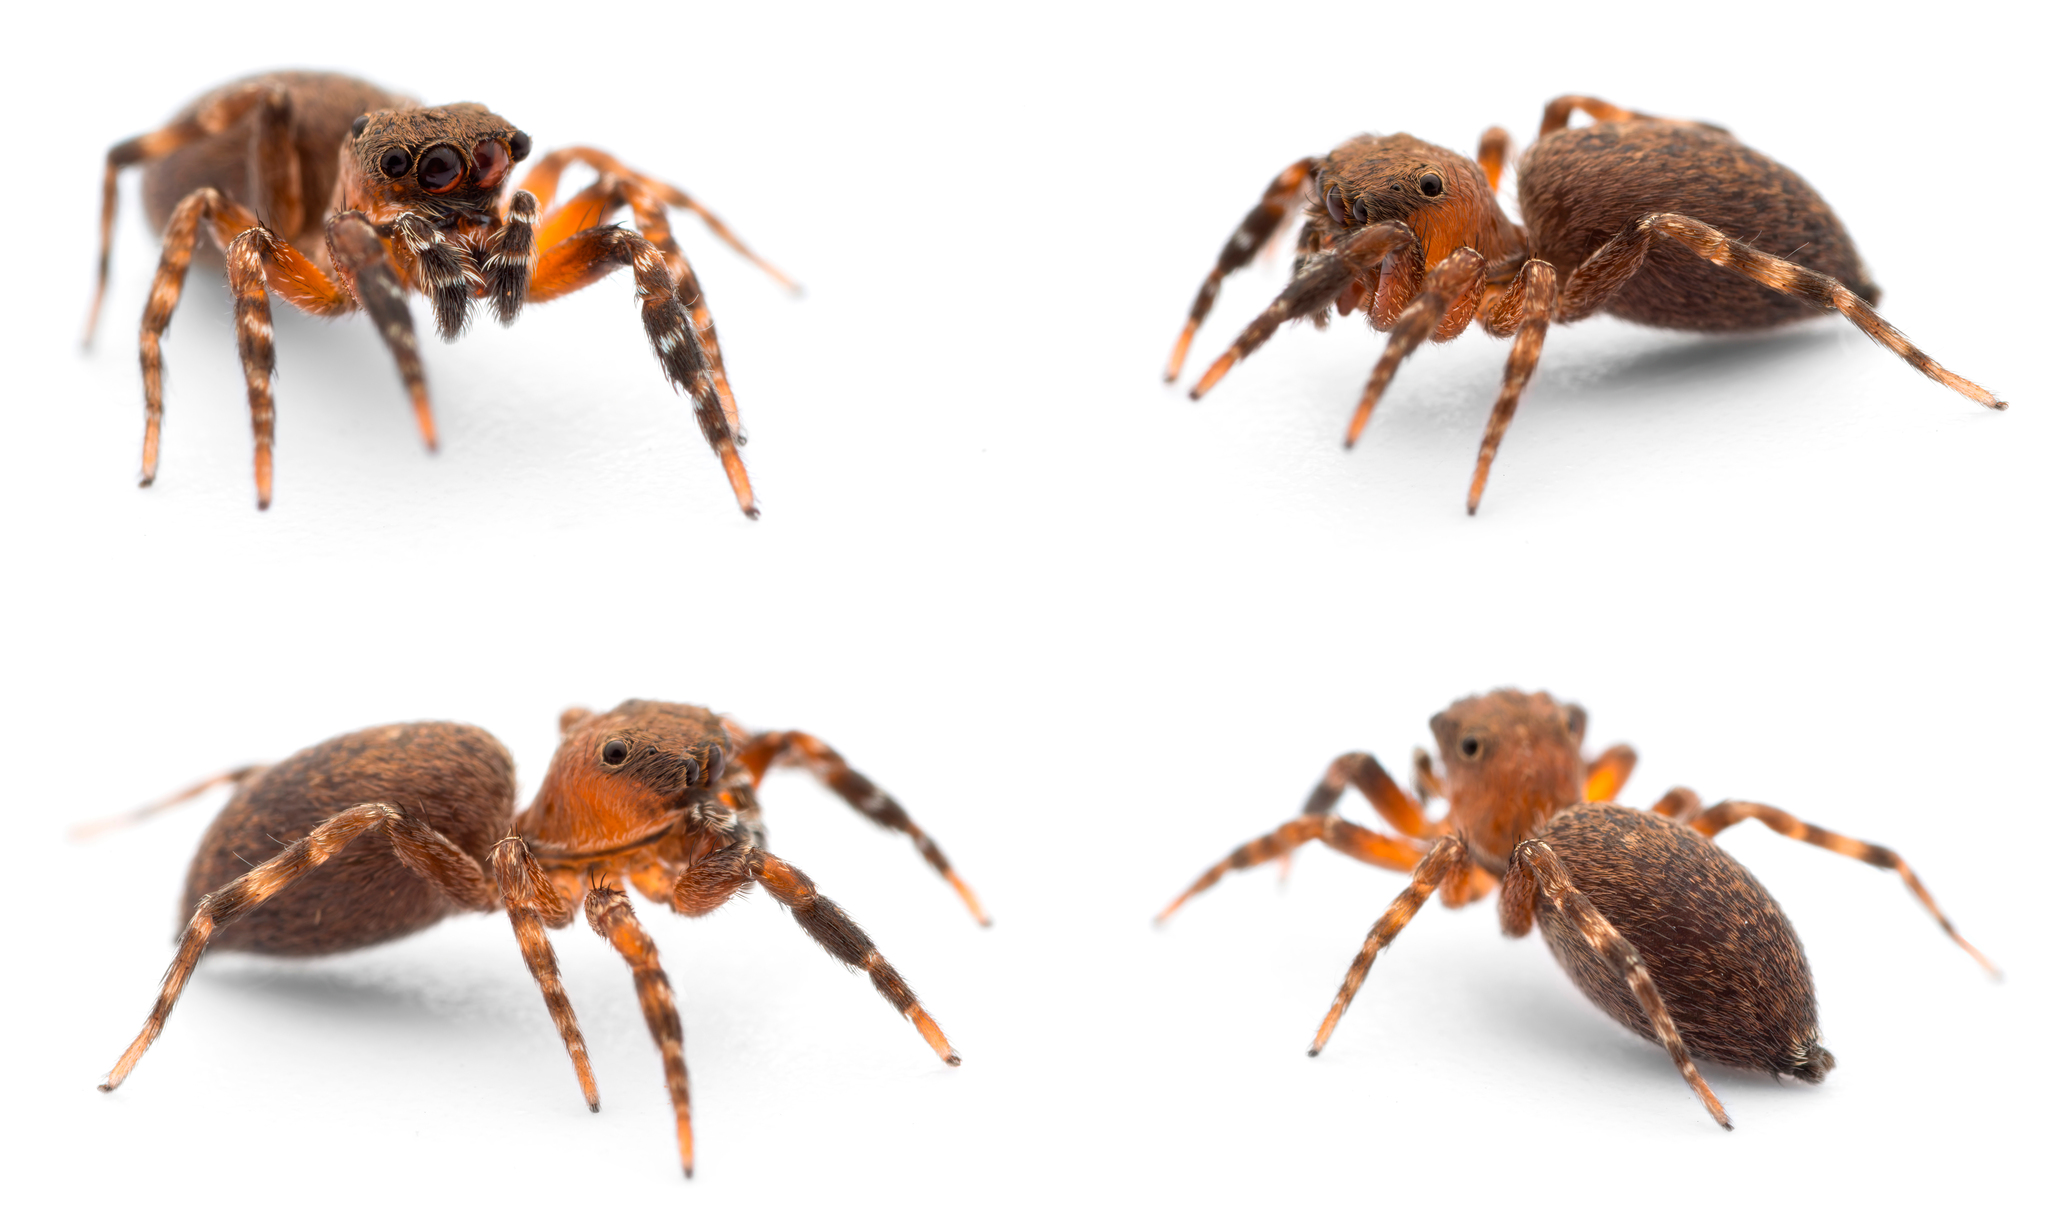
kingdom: Animalia
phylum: Arthropoda
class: Arachnida
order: Araneae
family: Salticidae
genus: Cyrba
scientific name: Cyrba algerina
